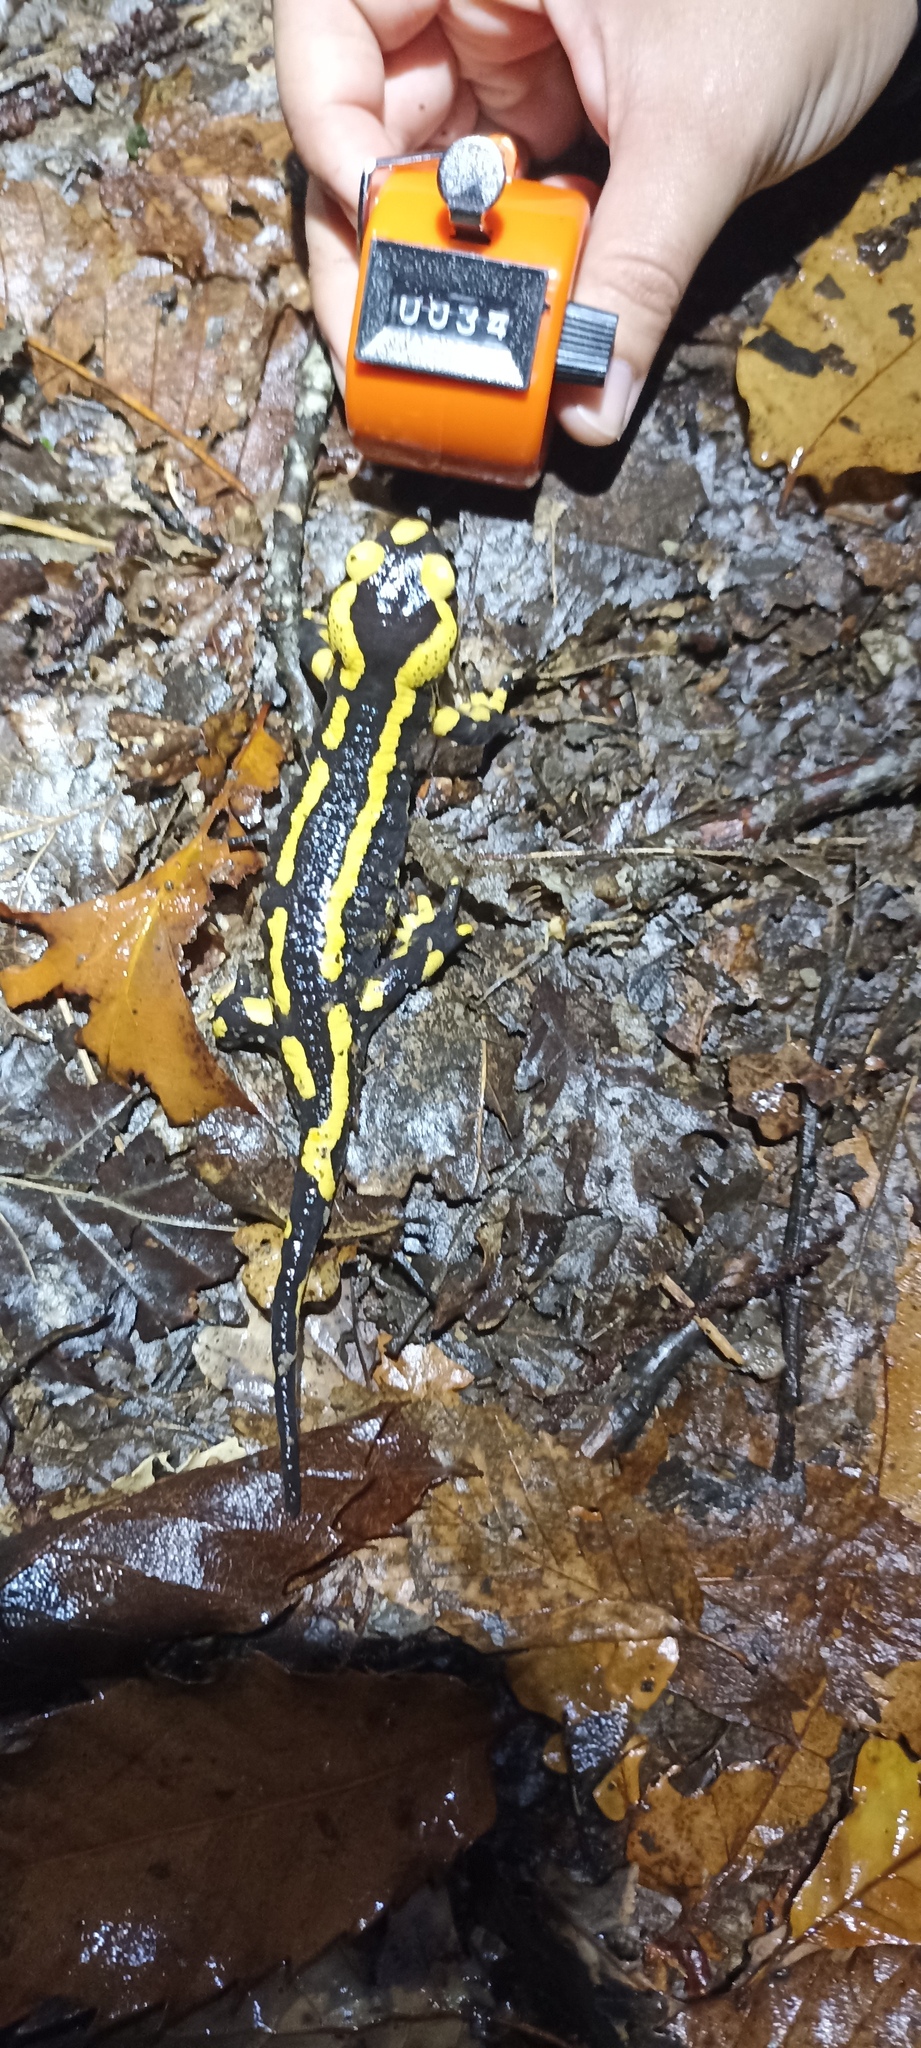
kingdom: Animalia
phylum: Chordata
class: Amphibia
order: Caudata
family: Salamandridae
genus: Salamandra
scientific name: Salamandra salamandra
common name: Fire salamander
